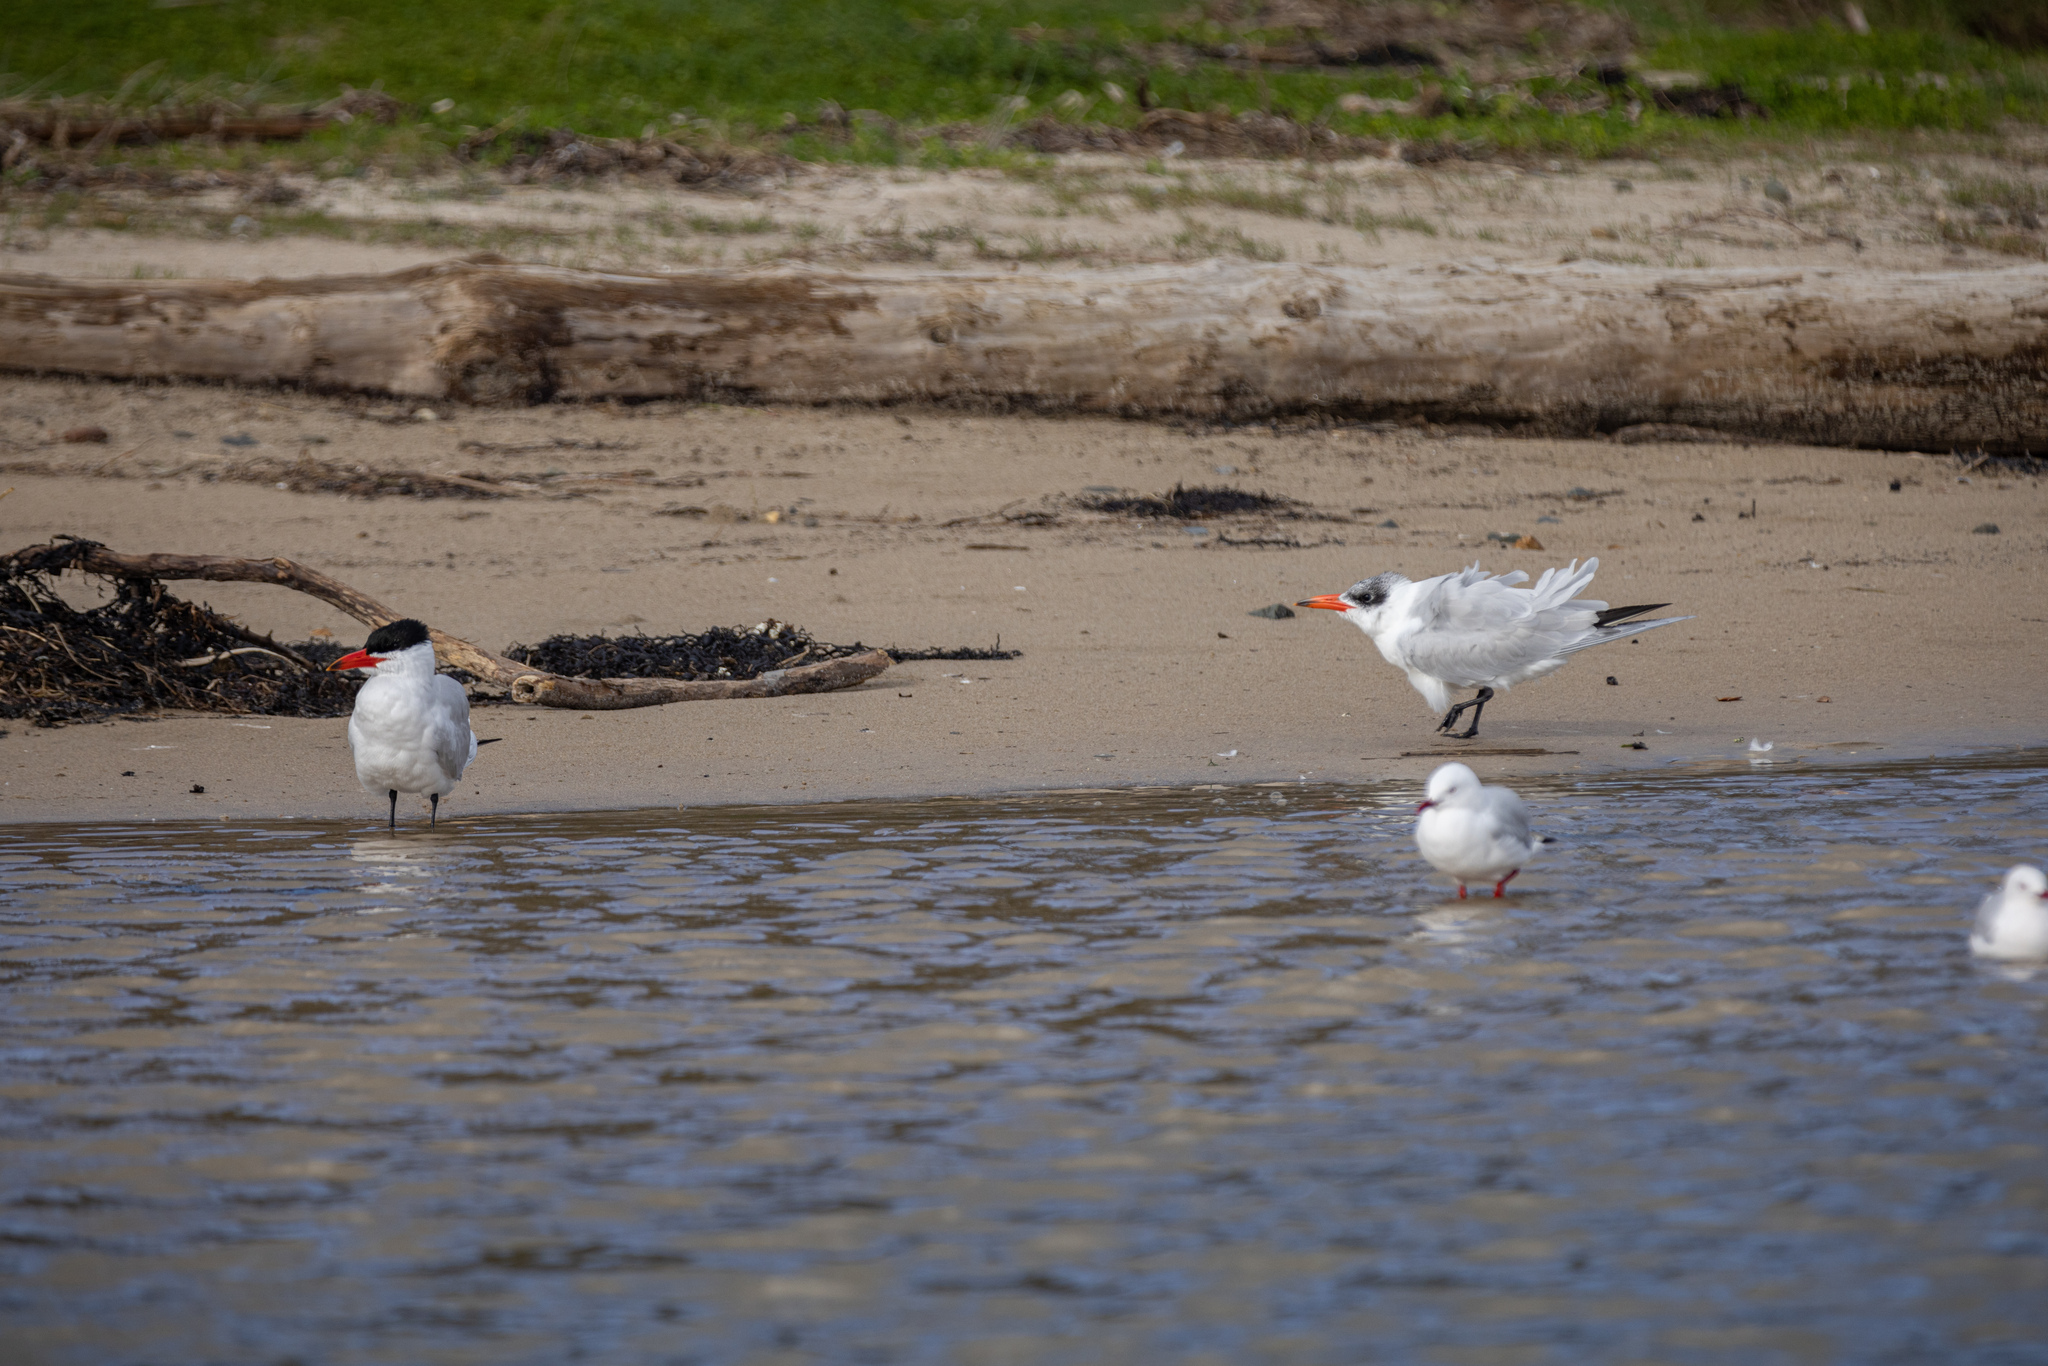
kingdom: Animalia
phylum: Chordata
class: Aves
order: Charadriiformes
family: Laridae
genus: Hydroprogne
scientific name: Hydroprogne caspia
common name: Caspian tern
